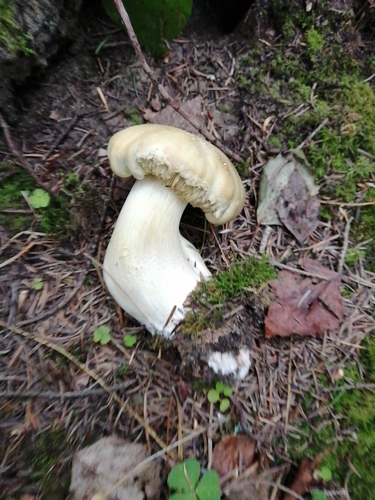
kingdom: Fungi
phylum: Basidiomycota
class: Agaricomycetes
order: Agaricales
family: Tricholomataceae
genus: Tricholoma
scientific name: Tricholoma rapipes
